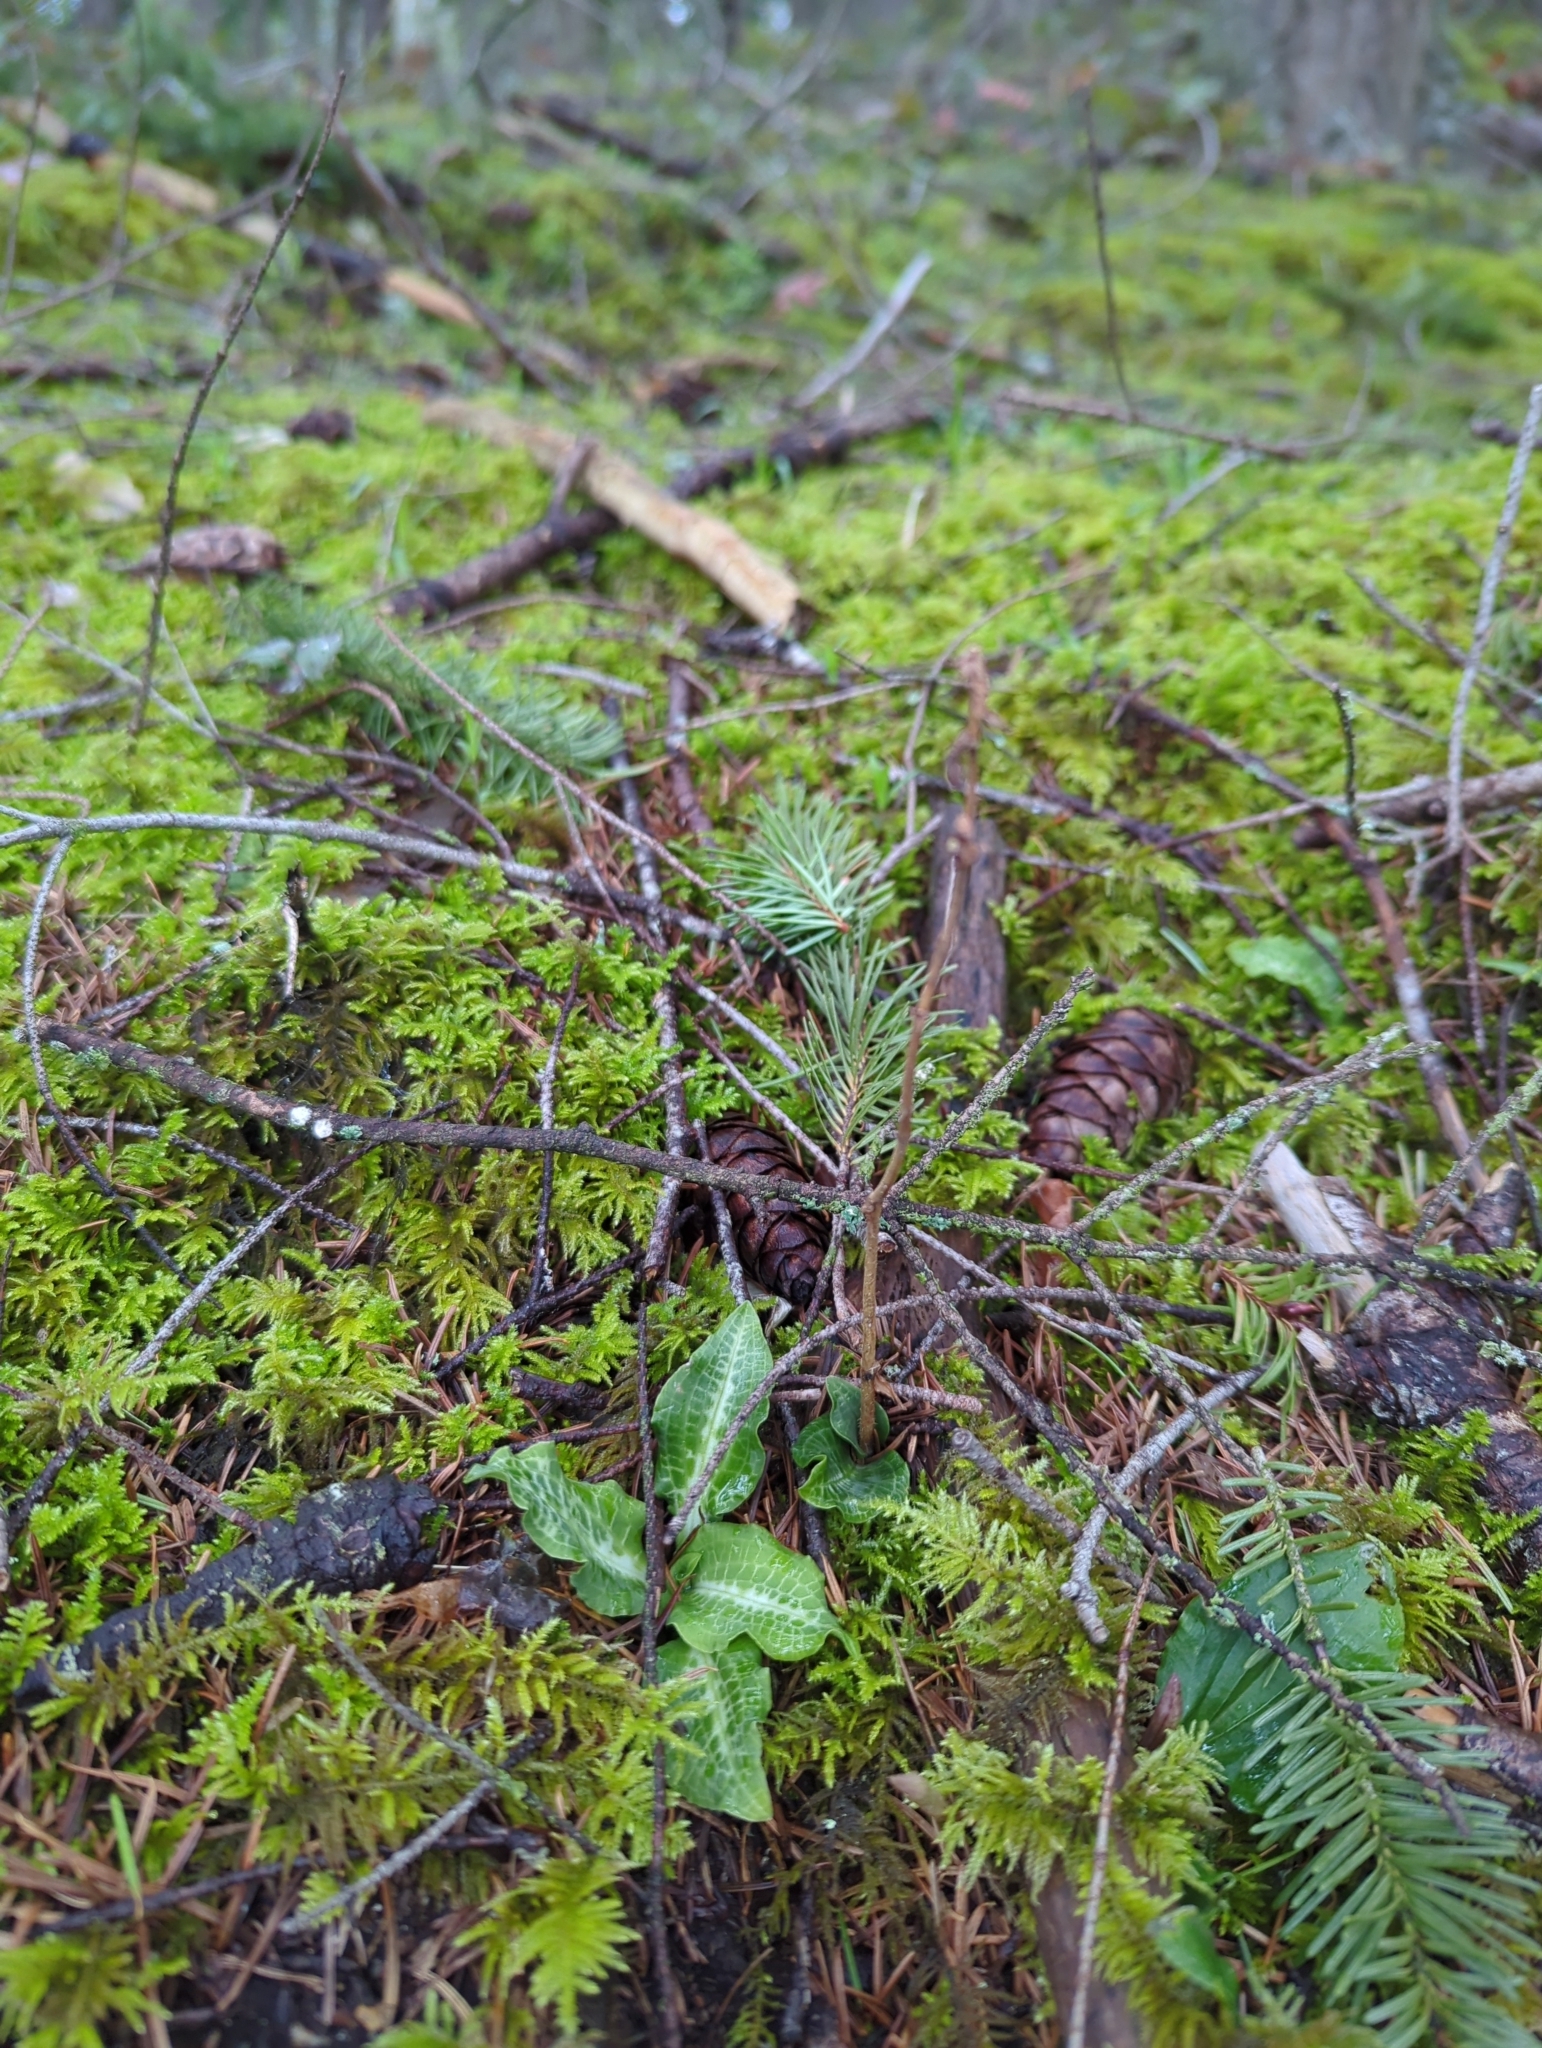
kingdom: Plantae
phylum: Tracheophyta
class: Liliopsida
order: Asparagales
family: Orchidaceae
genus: Goodyera
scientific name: Goodyera oblongifolia
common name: Giant rattlesnake-plantain
